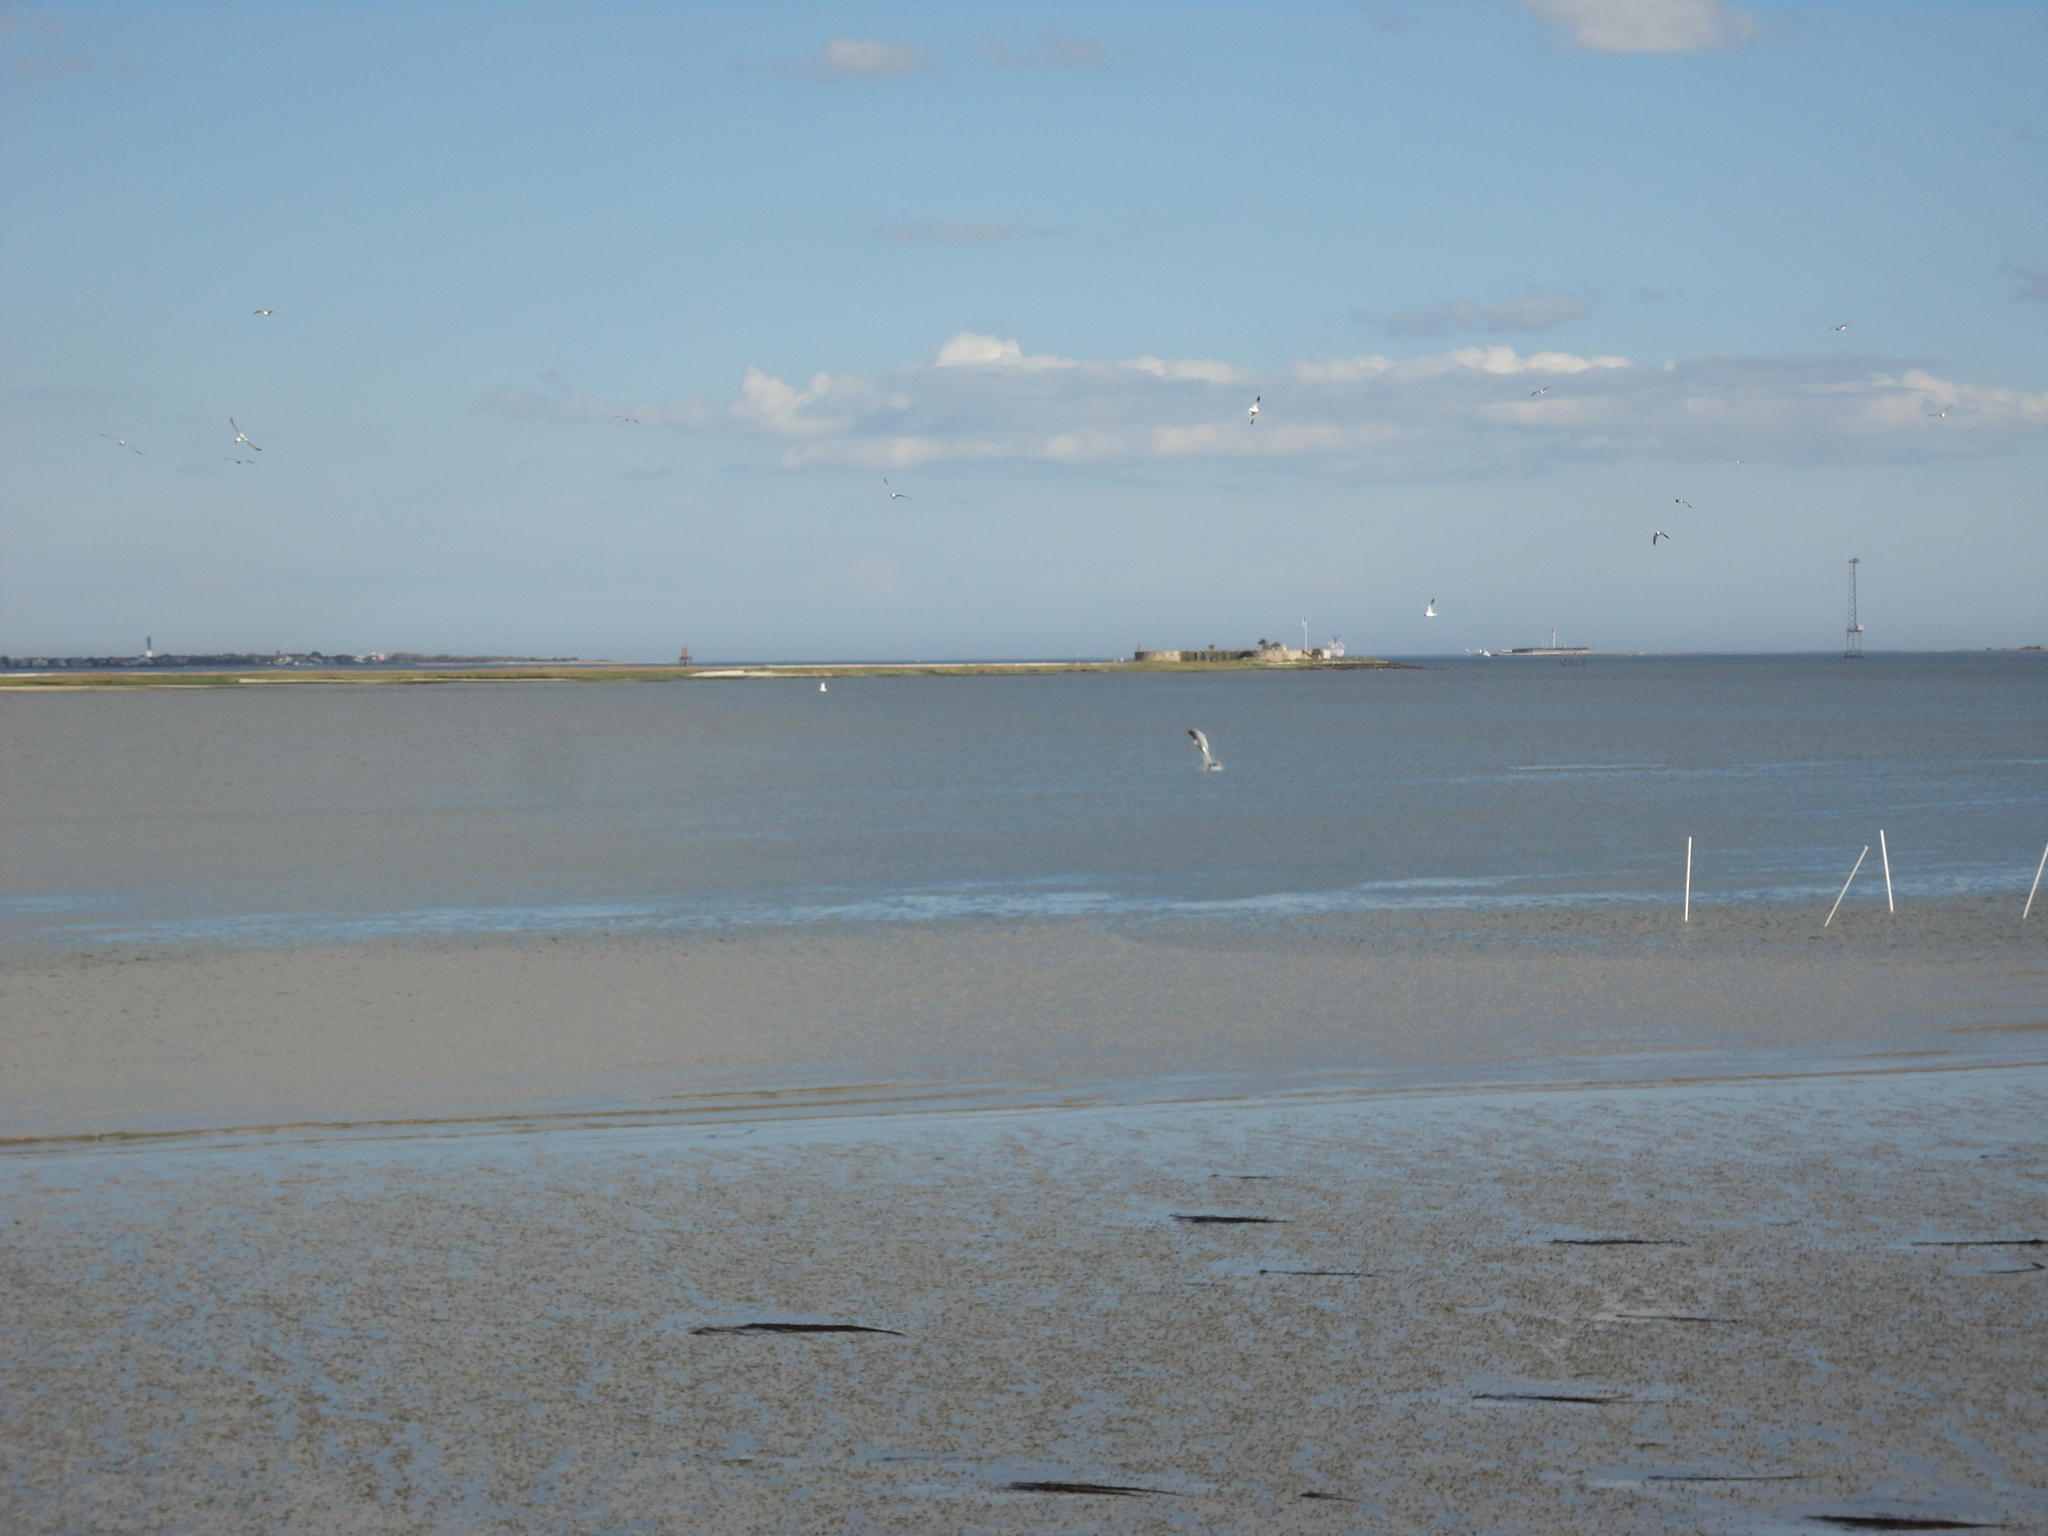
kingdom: Animalia
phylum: Chordata
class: Mammalia
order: Cetacea
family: Delphinidae
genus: Tursiops
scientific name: Tursiops truncatus
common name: Bottlenose dolphin
